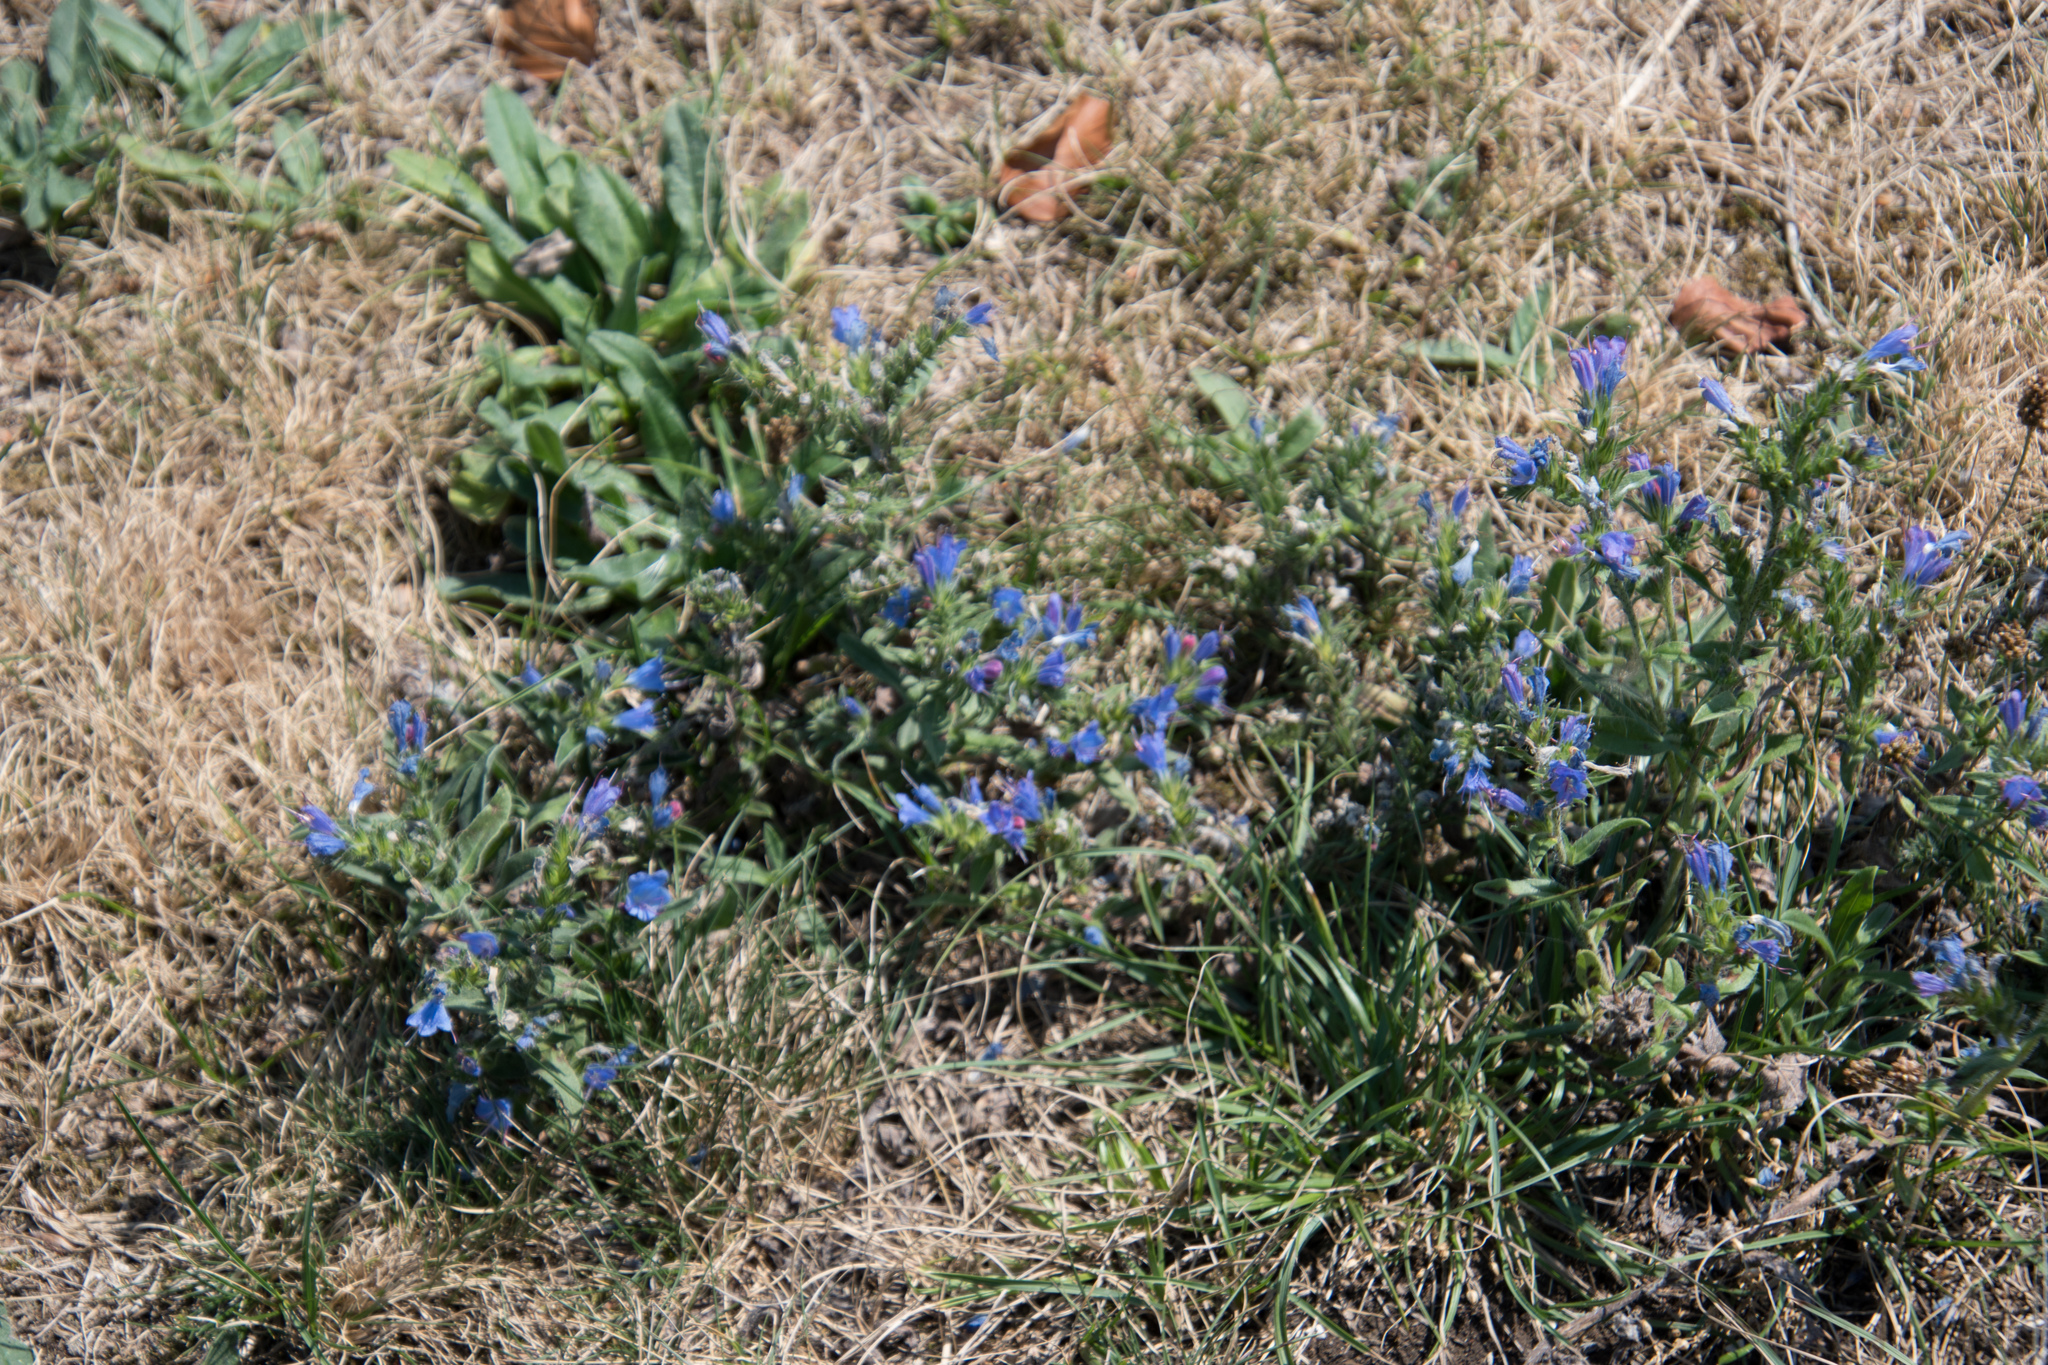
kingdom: Plantae
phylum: Tracheophyta
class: Magnoliopsida
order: Boraginales
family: Boraginaceae
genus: Echium
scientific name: Echium vulgare
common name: Common viper's bugloss
